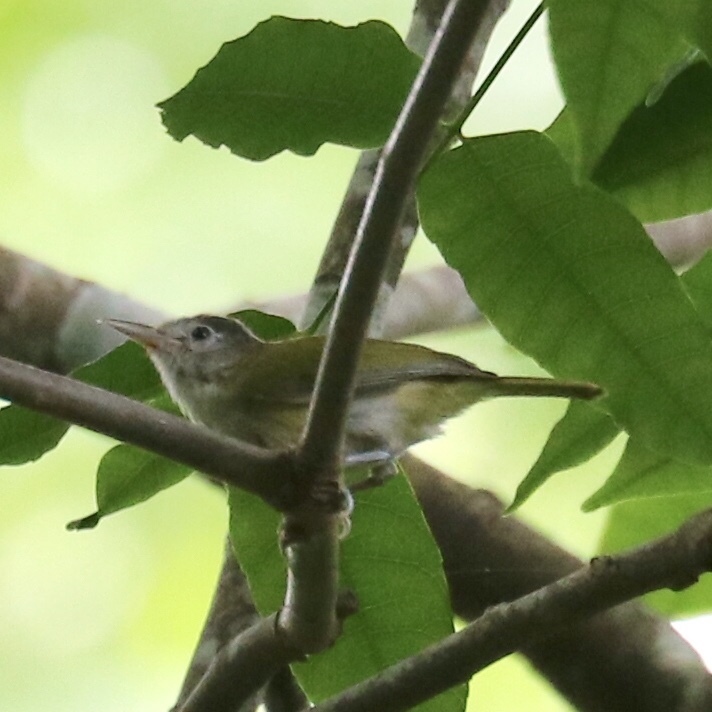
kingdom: Animalia
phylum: Chordata
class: Aves
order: Passeriformes
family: Vireonidae
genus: Hylophilus
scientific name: Hylophilus decurtatus
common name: Lesser greenlet
